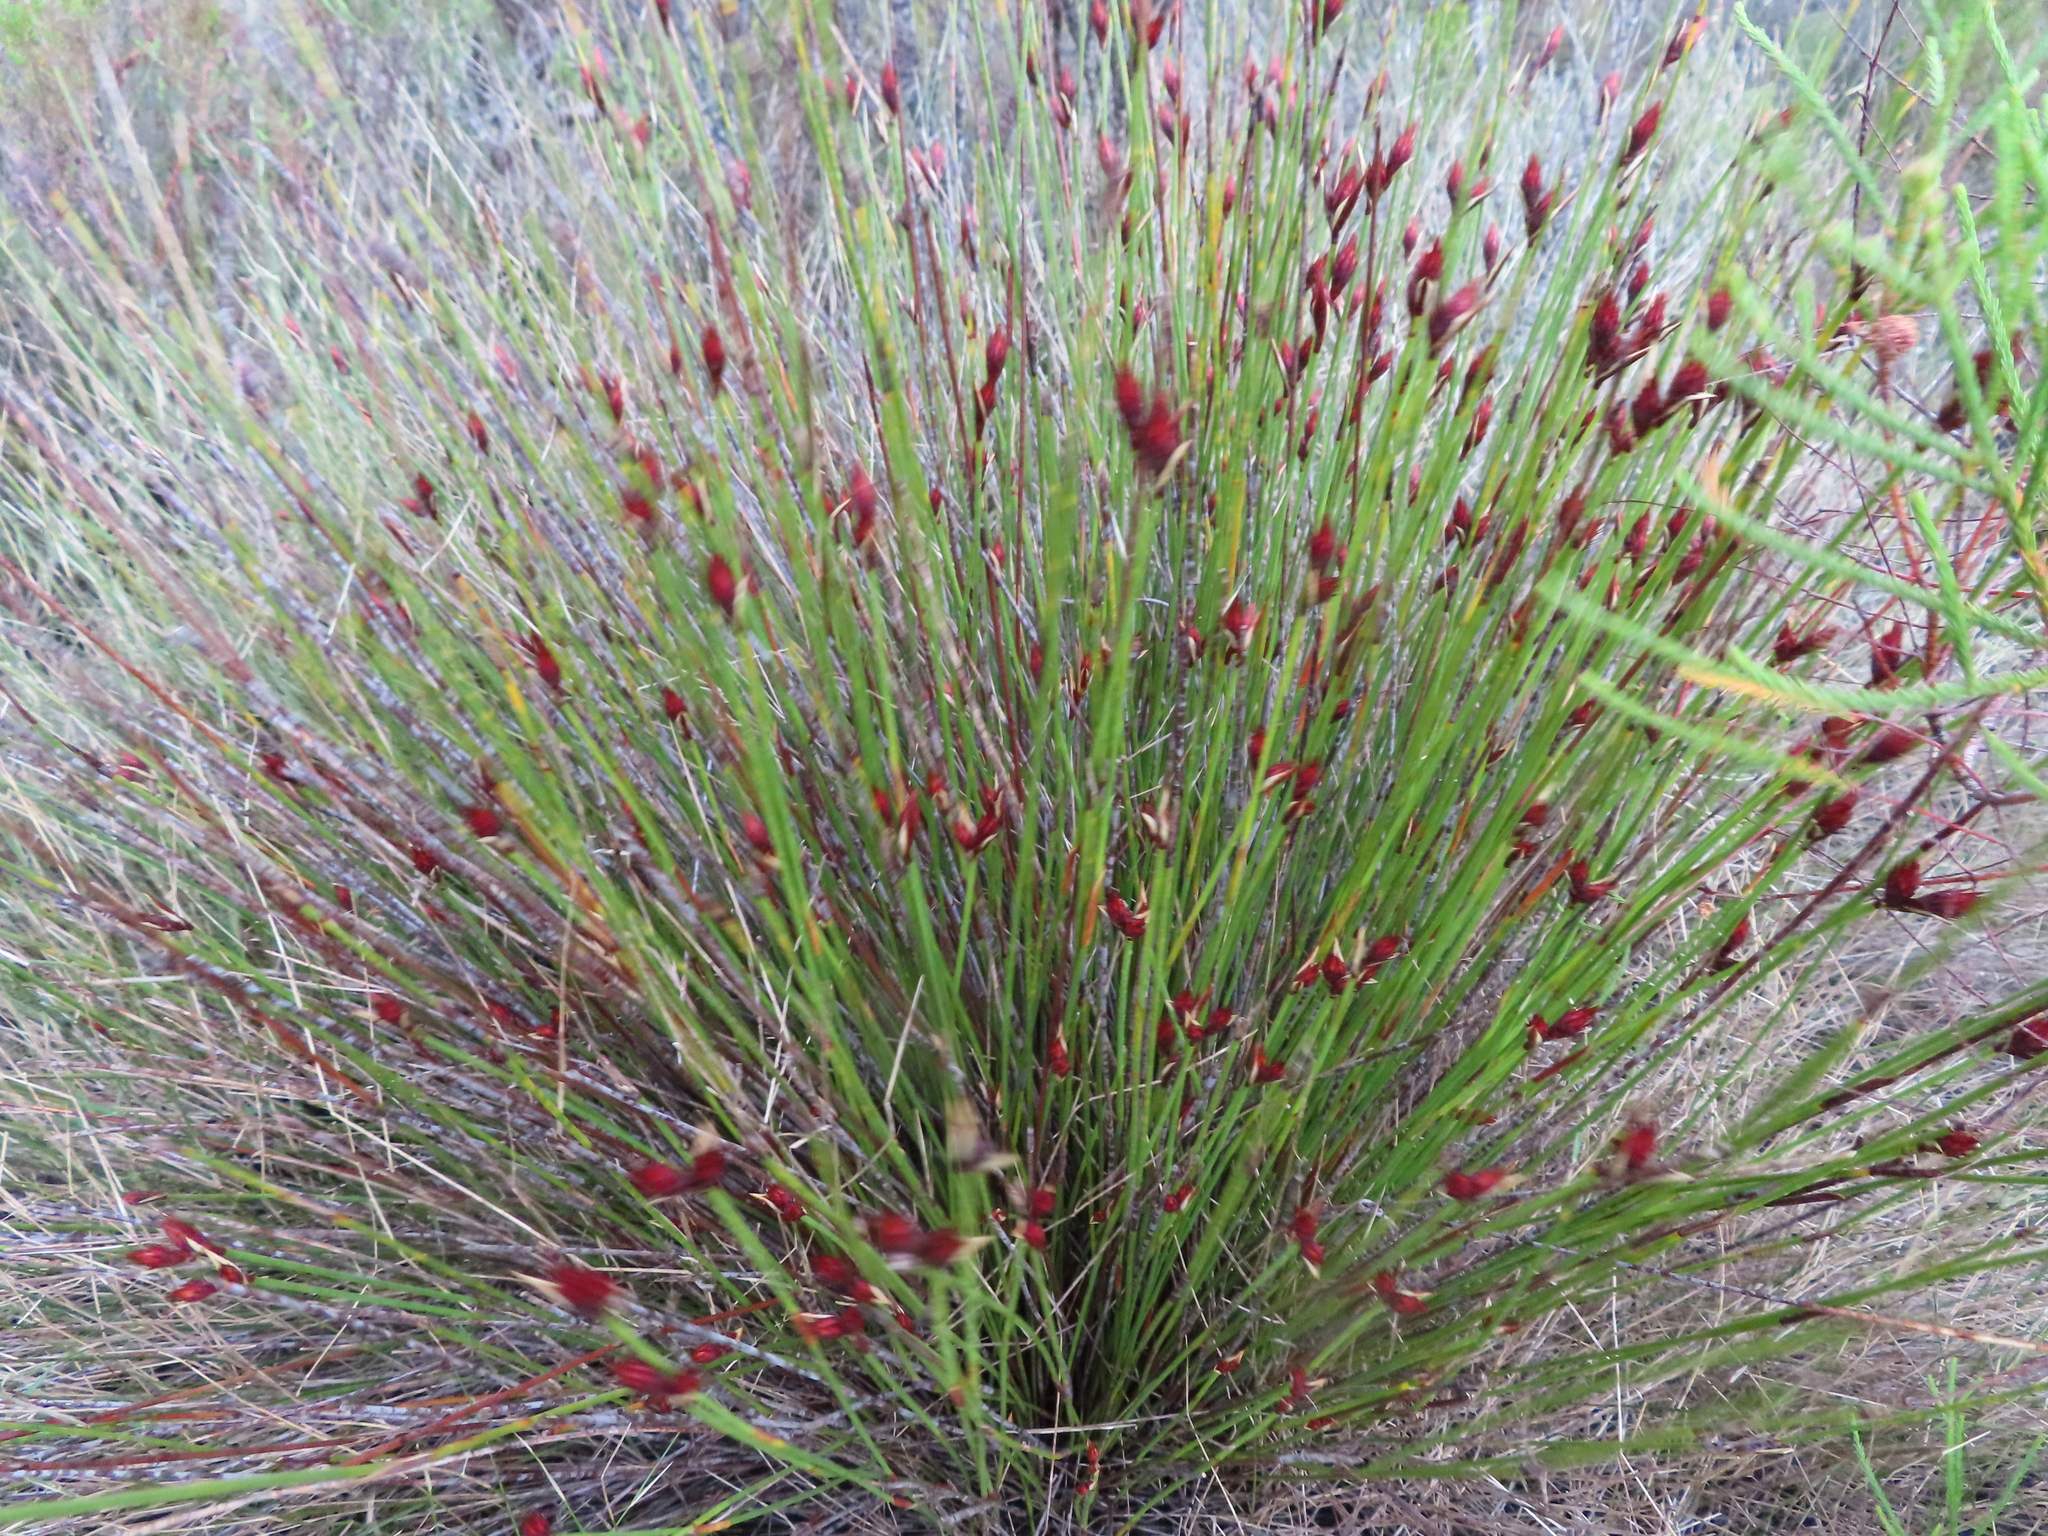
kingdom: Plantae
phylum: Tracheophyta
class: Liliopsida
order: Poales
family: Restionaceae
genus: Hypodiscus
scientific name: Hypodiscus aristatus
